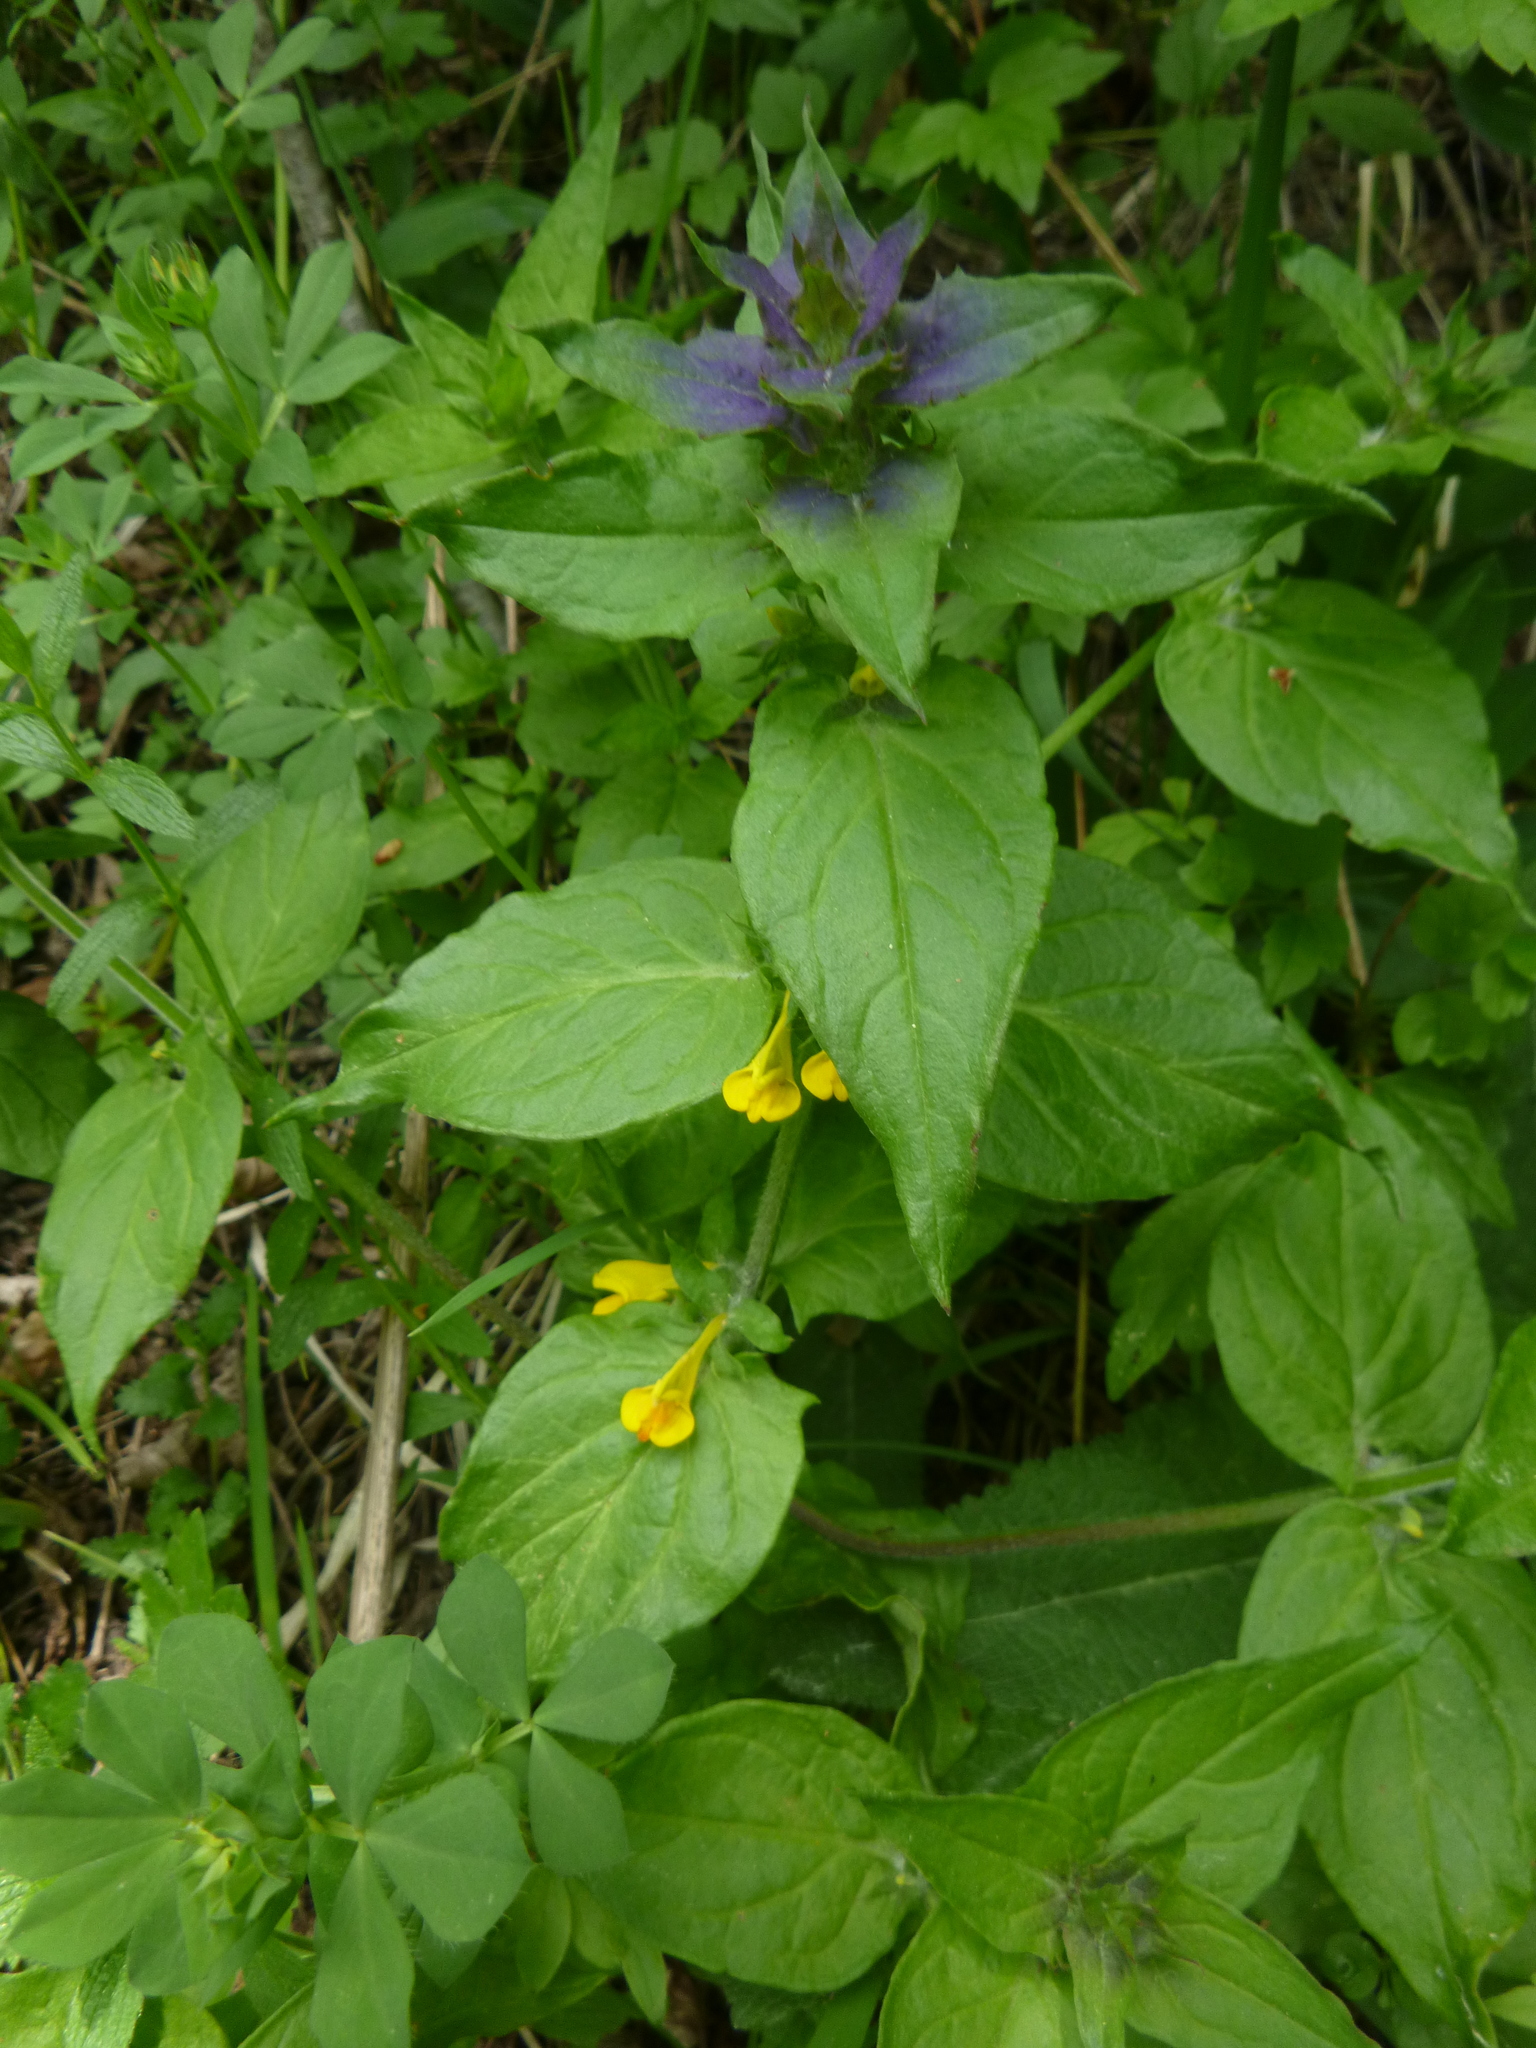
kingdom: Plantae
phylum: Tracheophyta
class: Magnoliopsida
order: Lamiales
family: Orobanchaceae
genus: Melampyrum
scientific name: Melampyrum nemorosum
